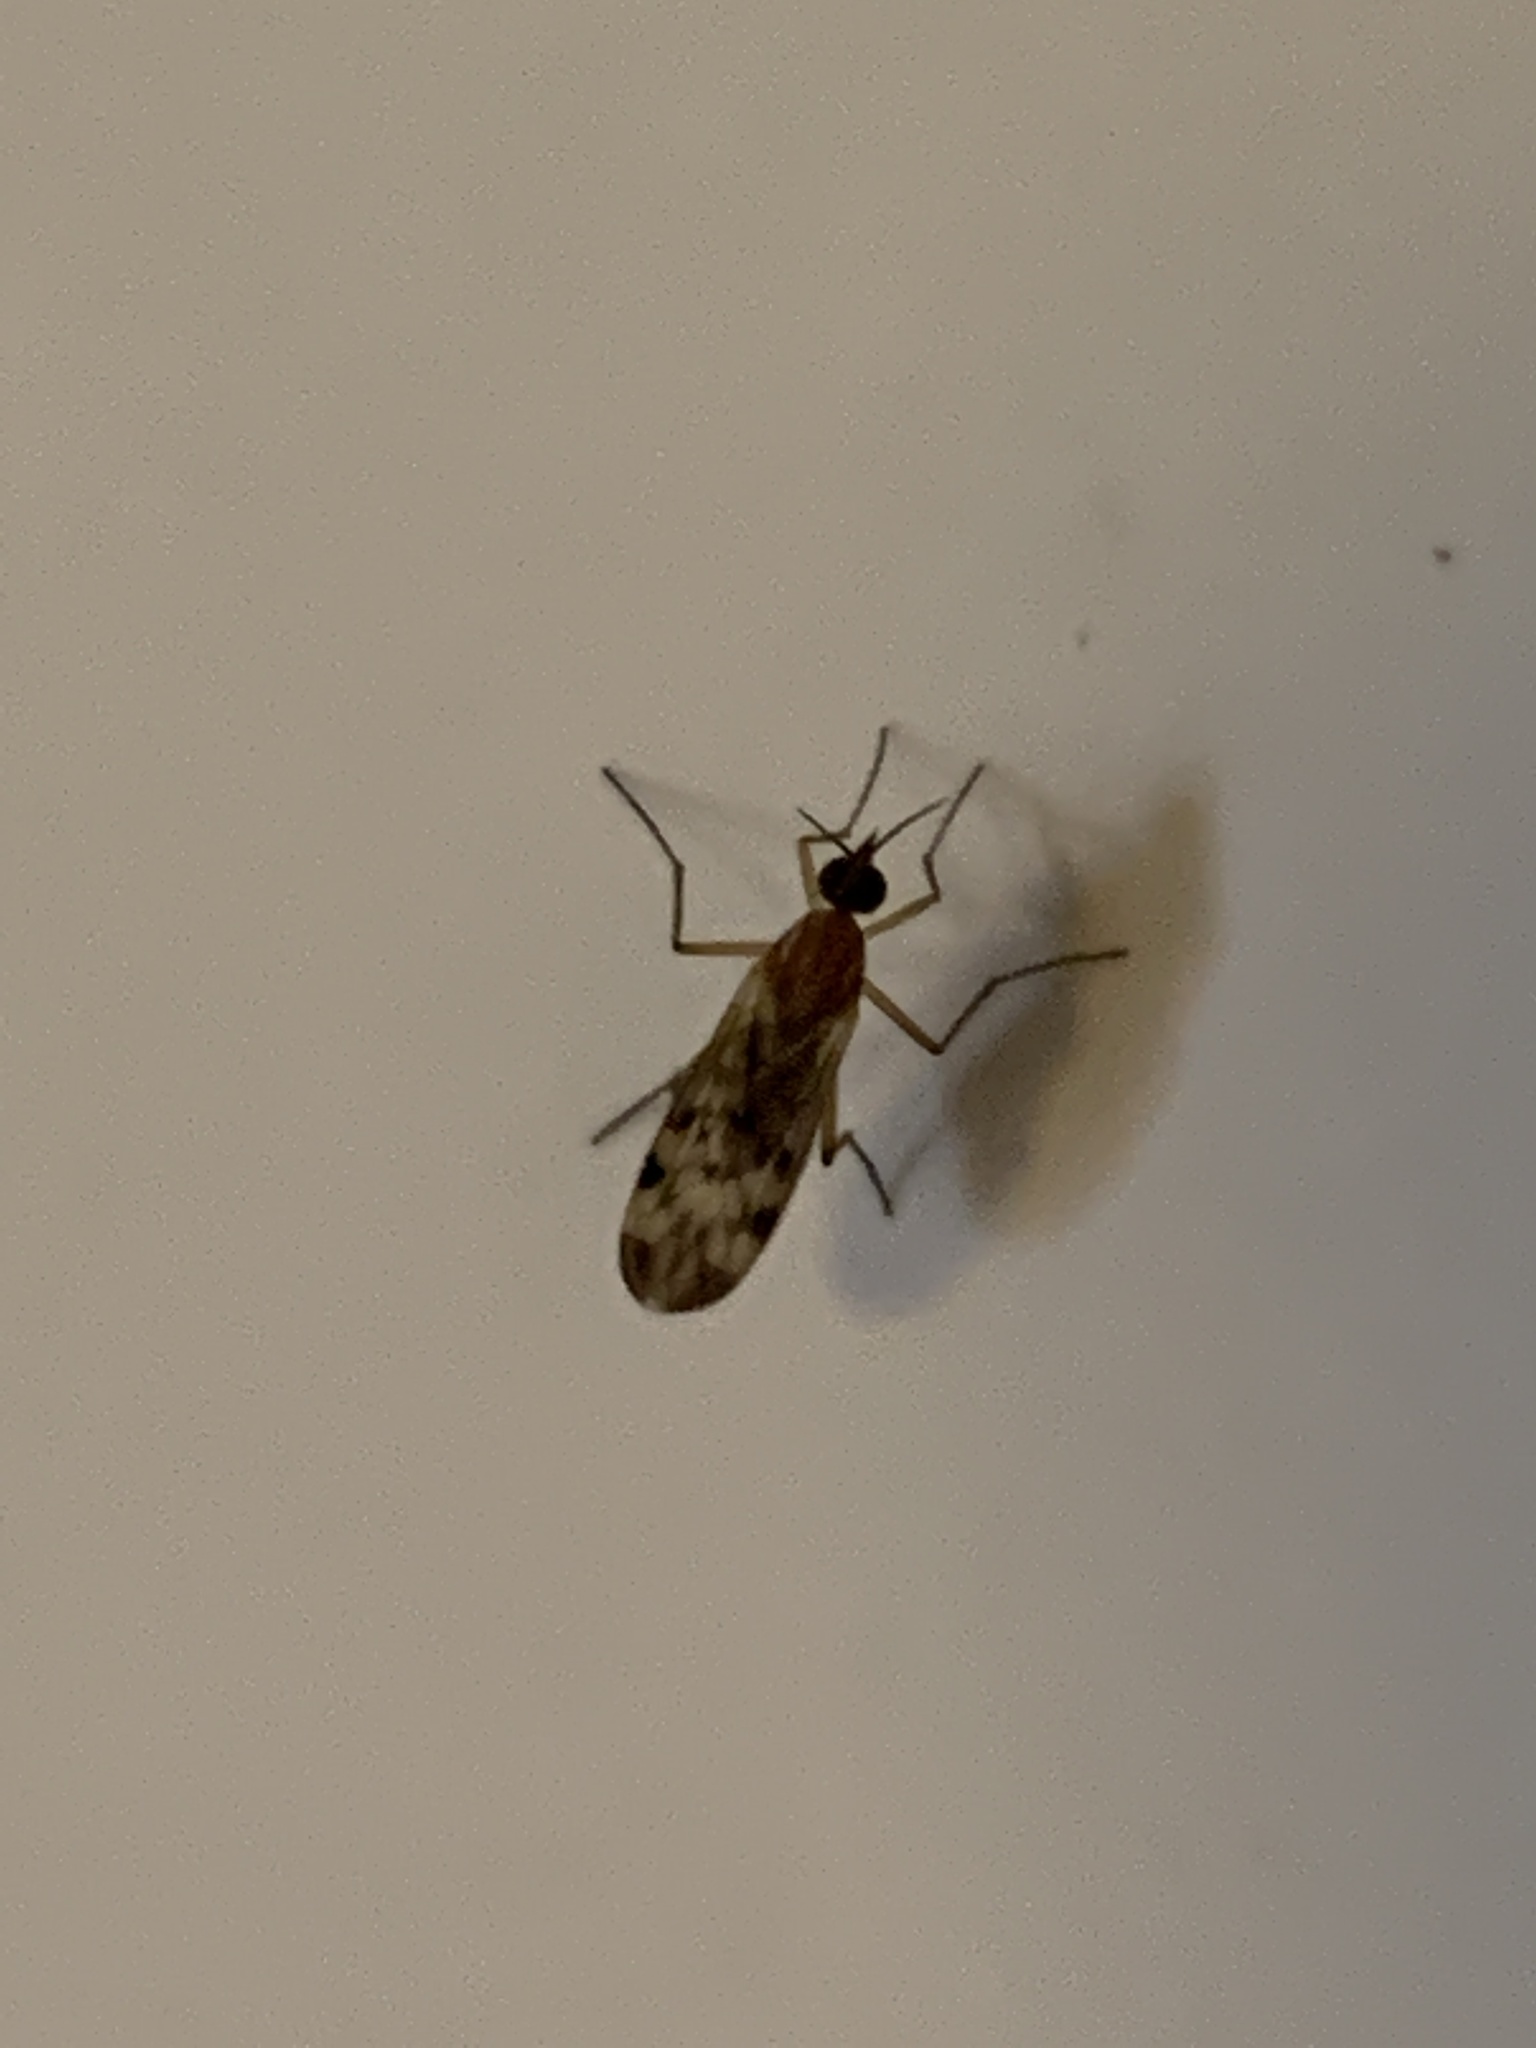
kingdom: Animalia
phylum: Arthropoda
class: Insecta
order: Diptera
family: Anisopodidae
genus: Sylvicola
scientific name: Sylvicola
